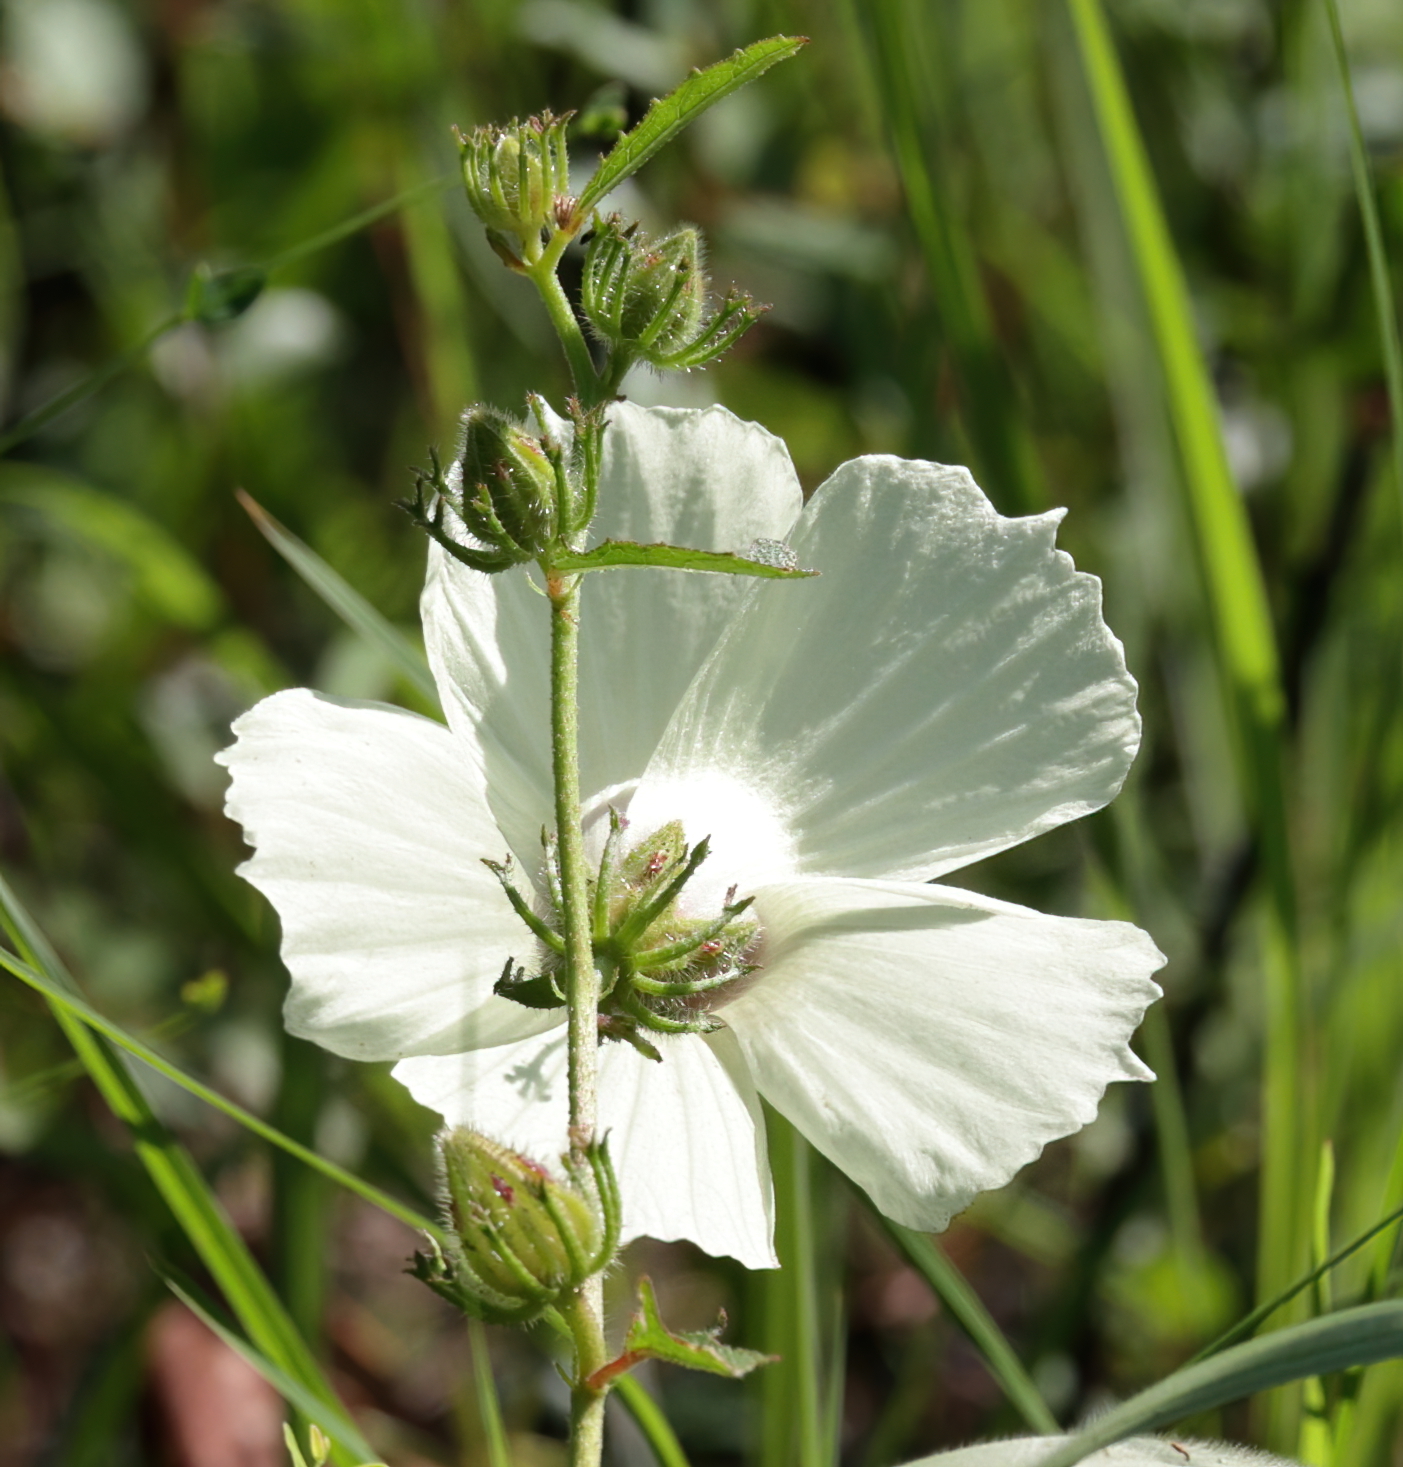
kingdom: Plantae
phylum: Tracheophyta
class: Magnoliopsida
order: Malvales
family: Malvaceae
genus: Hibiscus
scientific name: Hibiscus aculeatus
